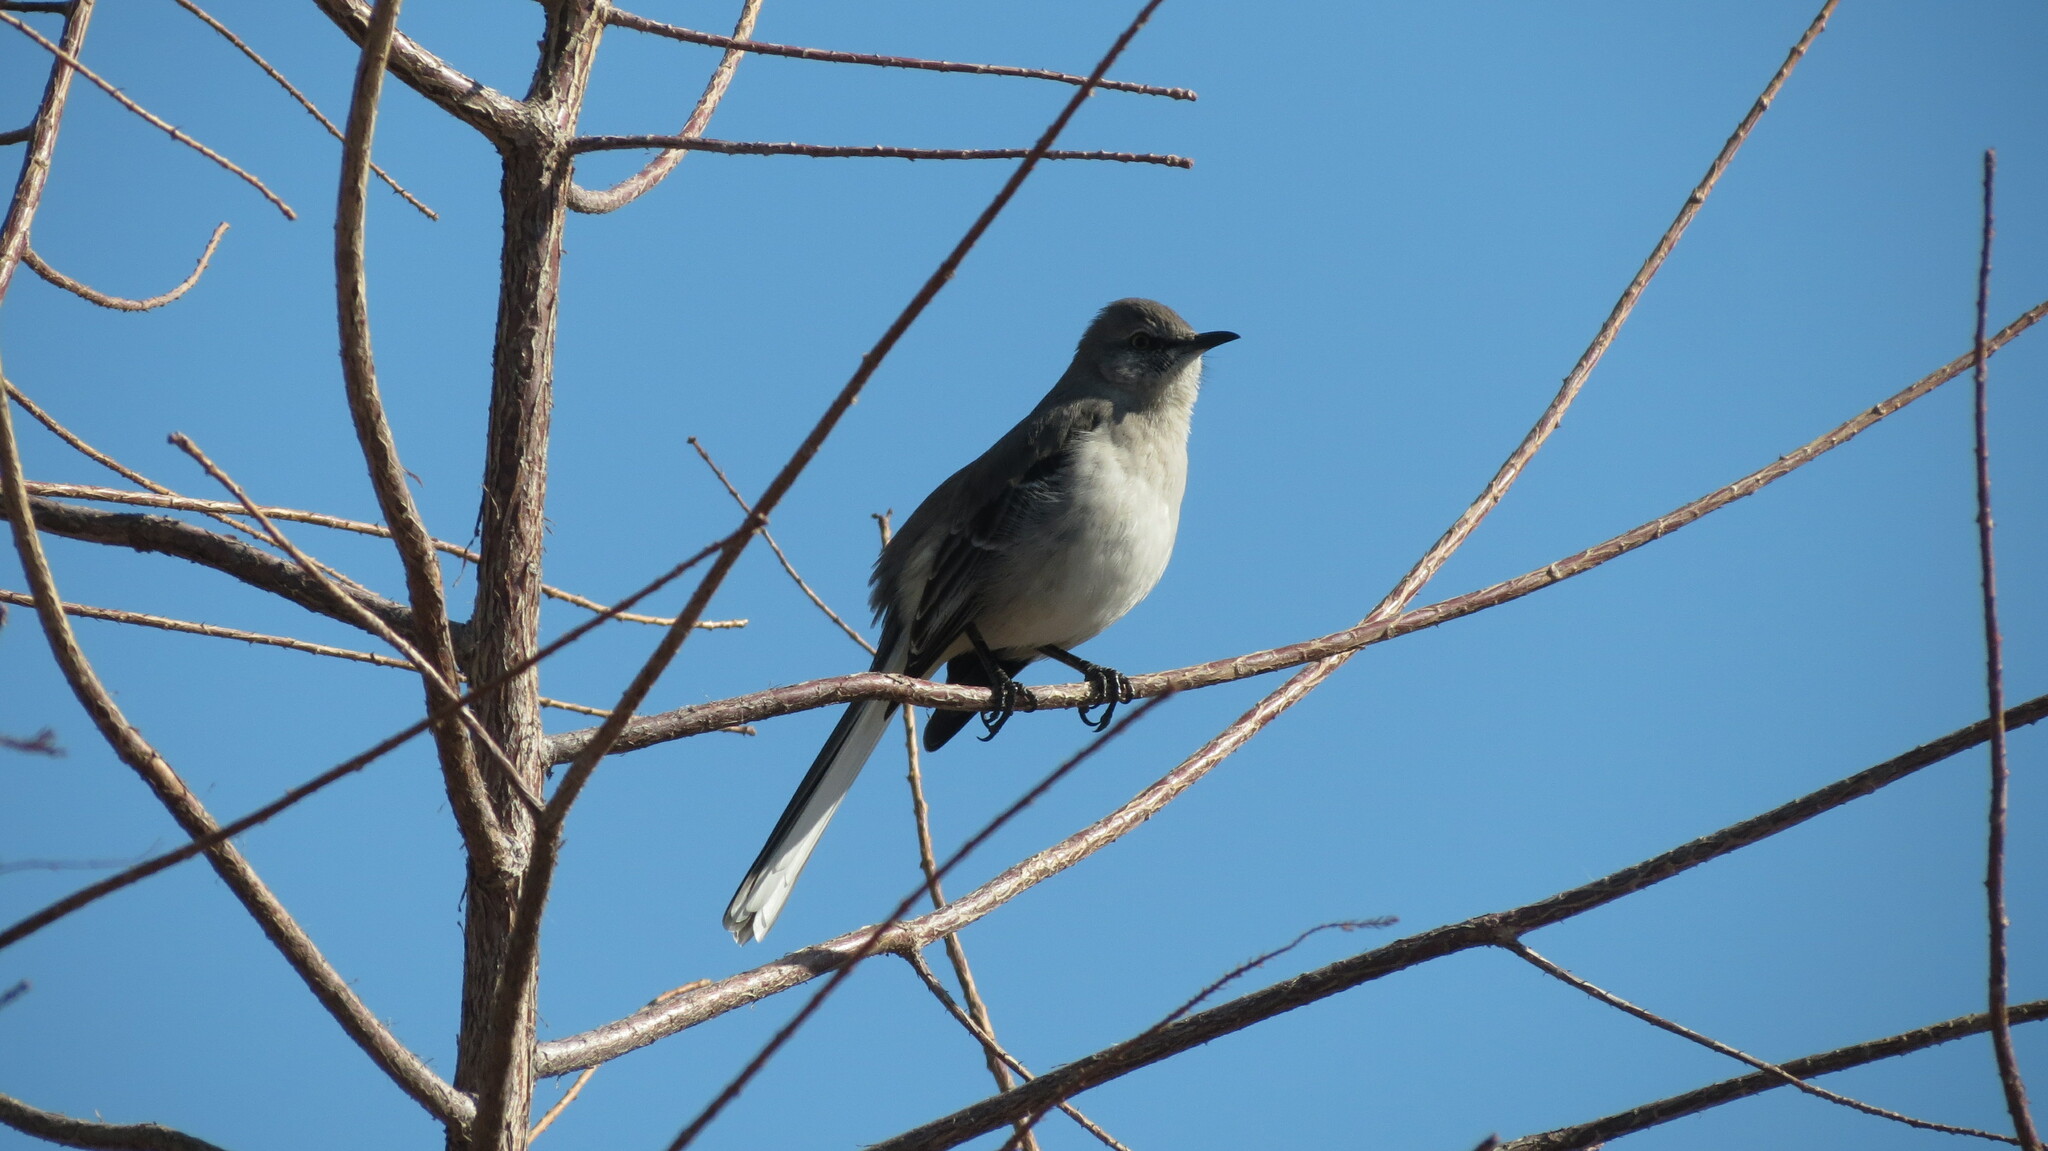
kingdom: Animalia
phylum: Chordata
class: Aves
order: Passeriformes
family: Mimidae
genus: Mimus
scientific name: Mimus polyglottos
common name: Northern mockingbird
